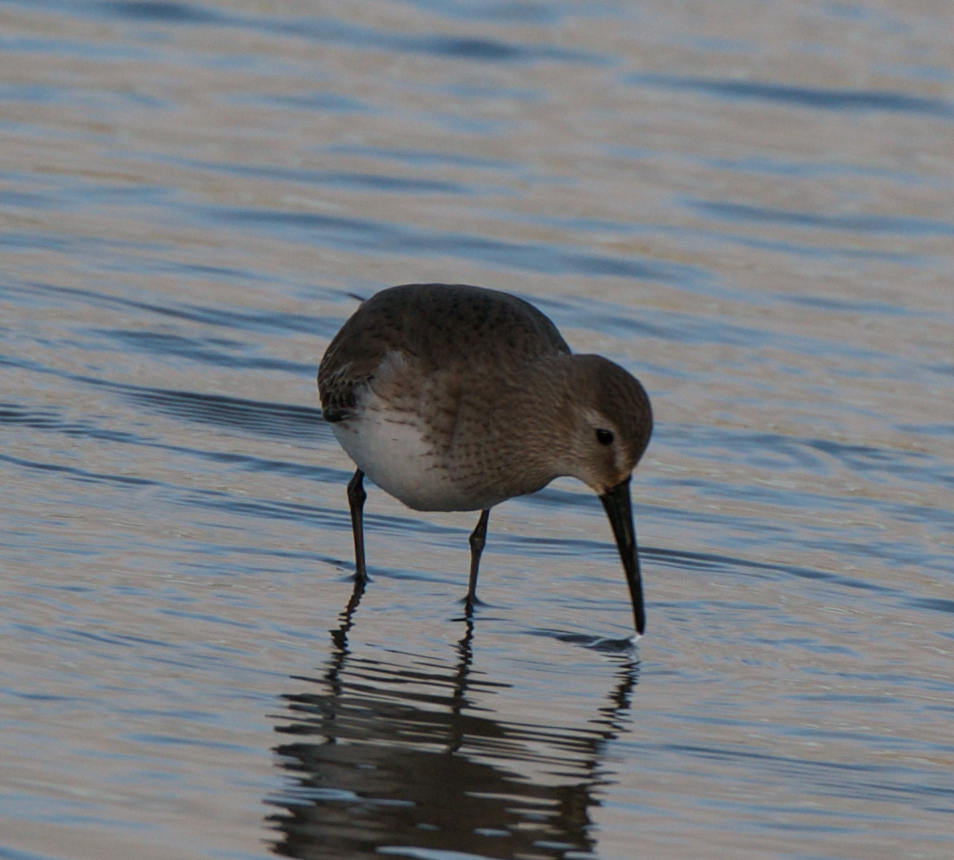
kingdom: Animalia
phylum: Chordata
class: Aves
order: Charadriiformes
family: Scolopacidae
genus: Calidris
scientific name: Calidris alpina
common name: Dunlin
